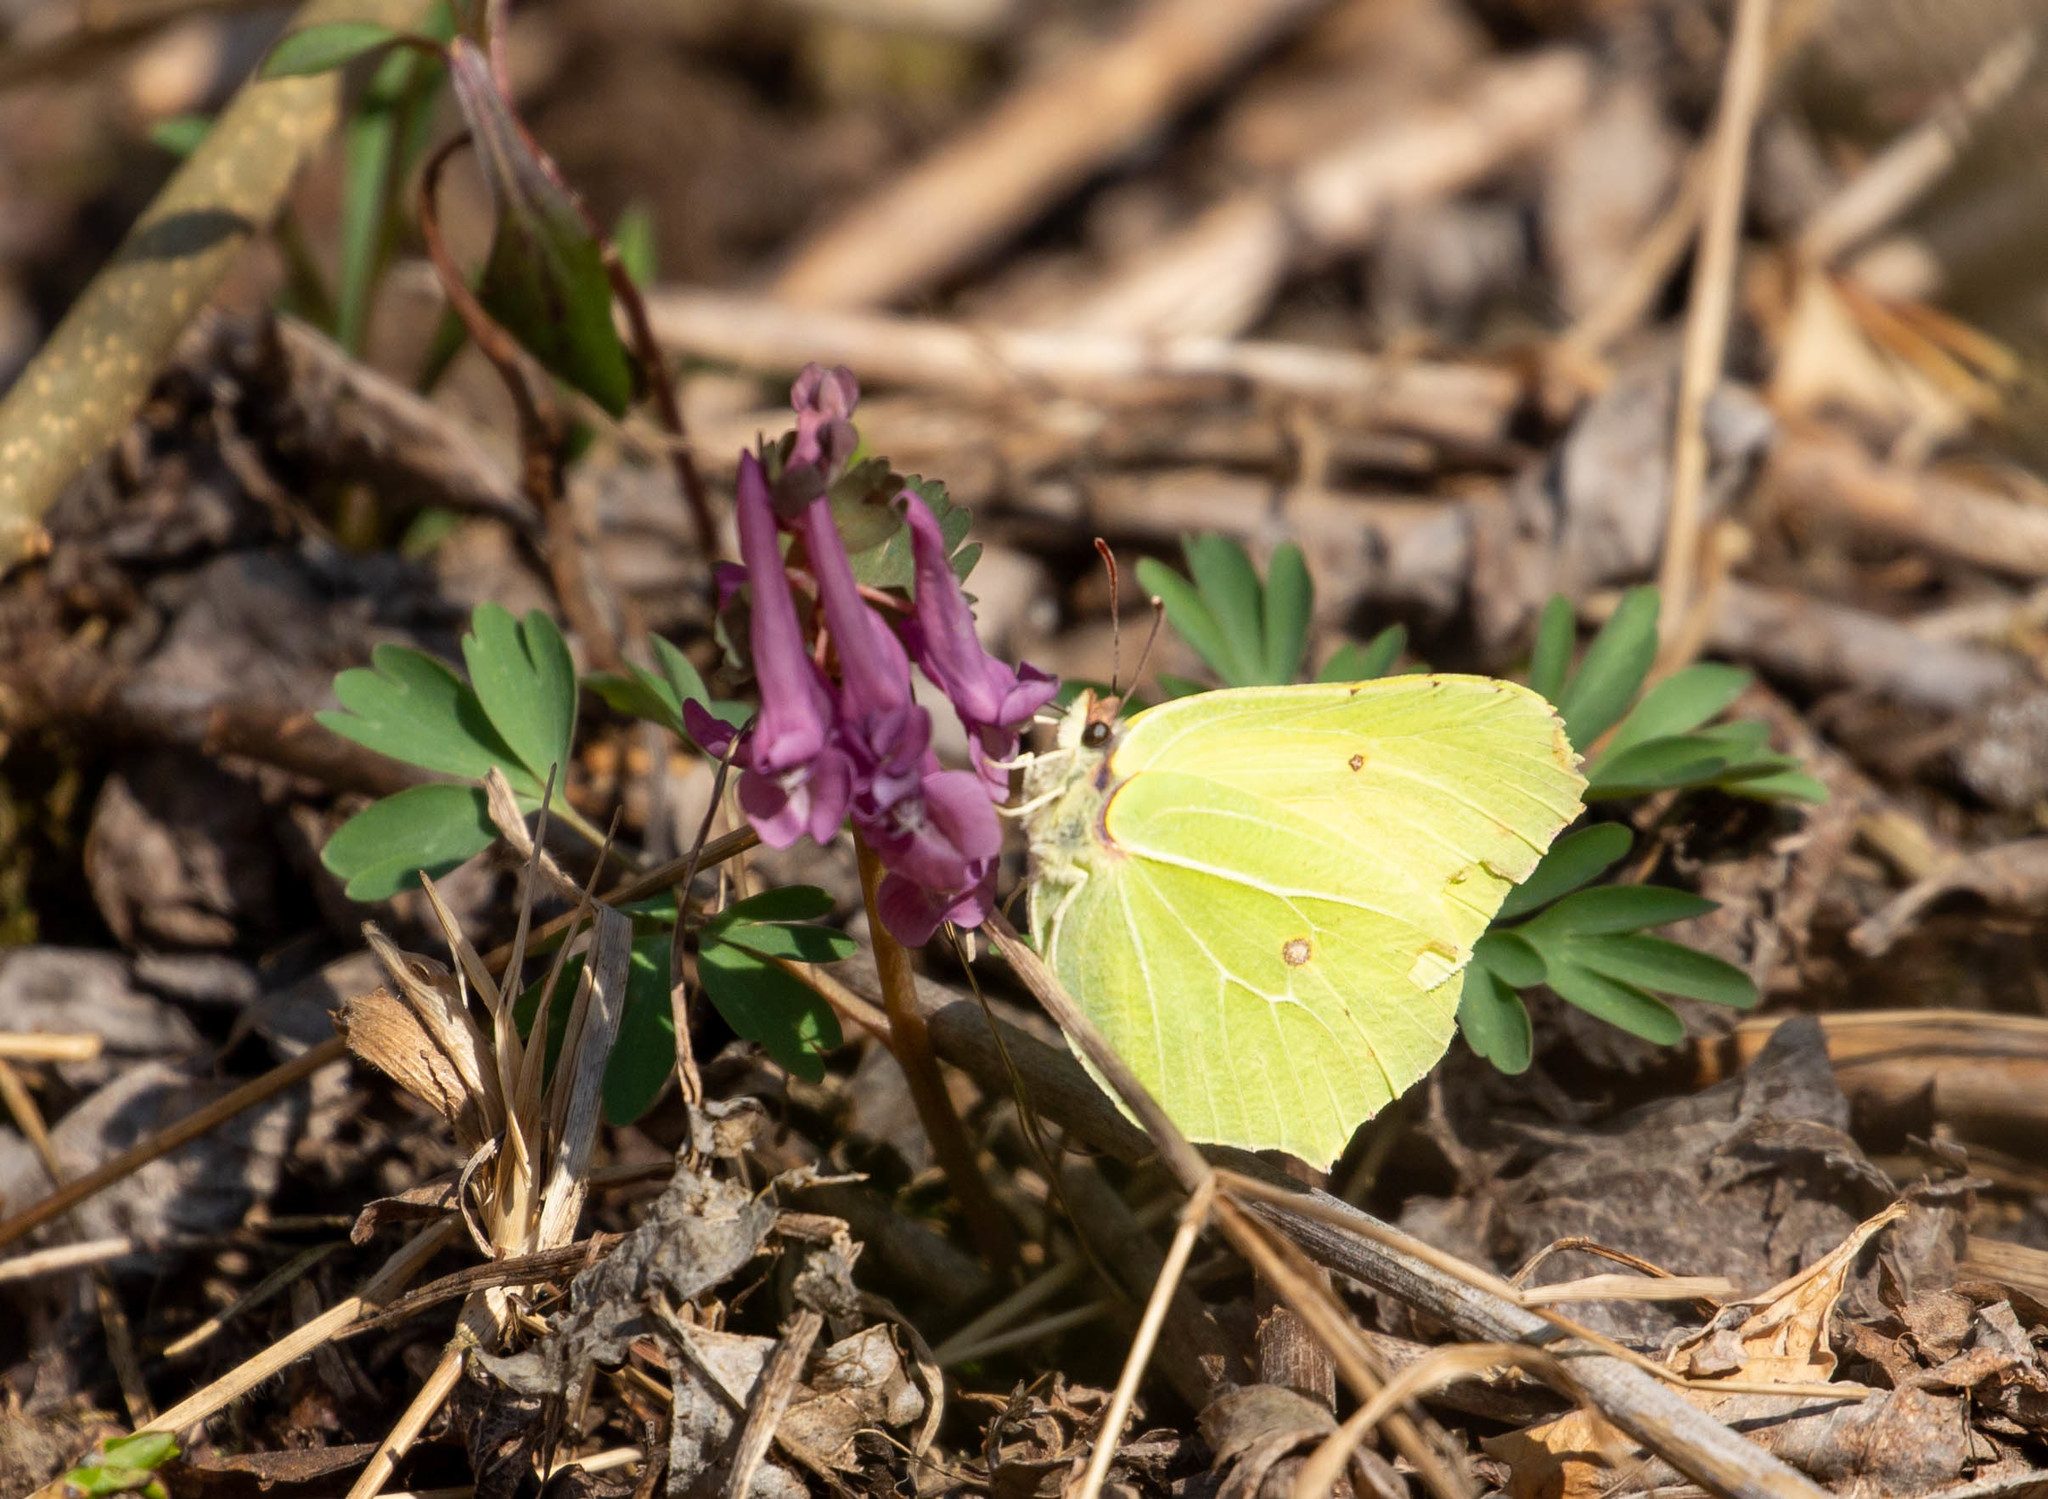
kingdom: Animalia
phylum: Arthropoda
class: Insecta
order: Lepidoptera
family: Pieridae
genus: Gonepteryx
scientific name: Gonepteryx rhamni
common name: Brimstone
